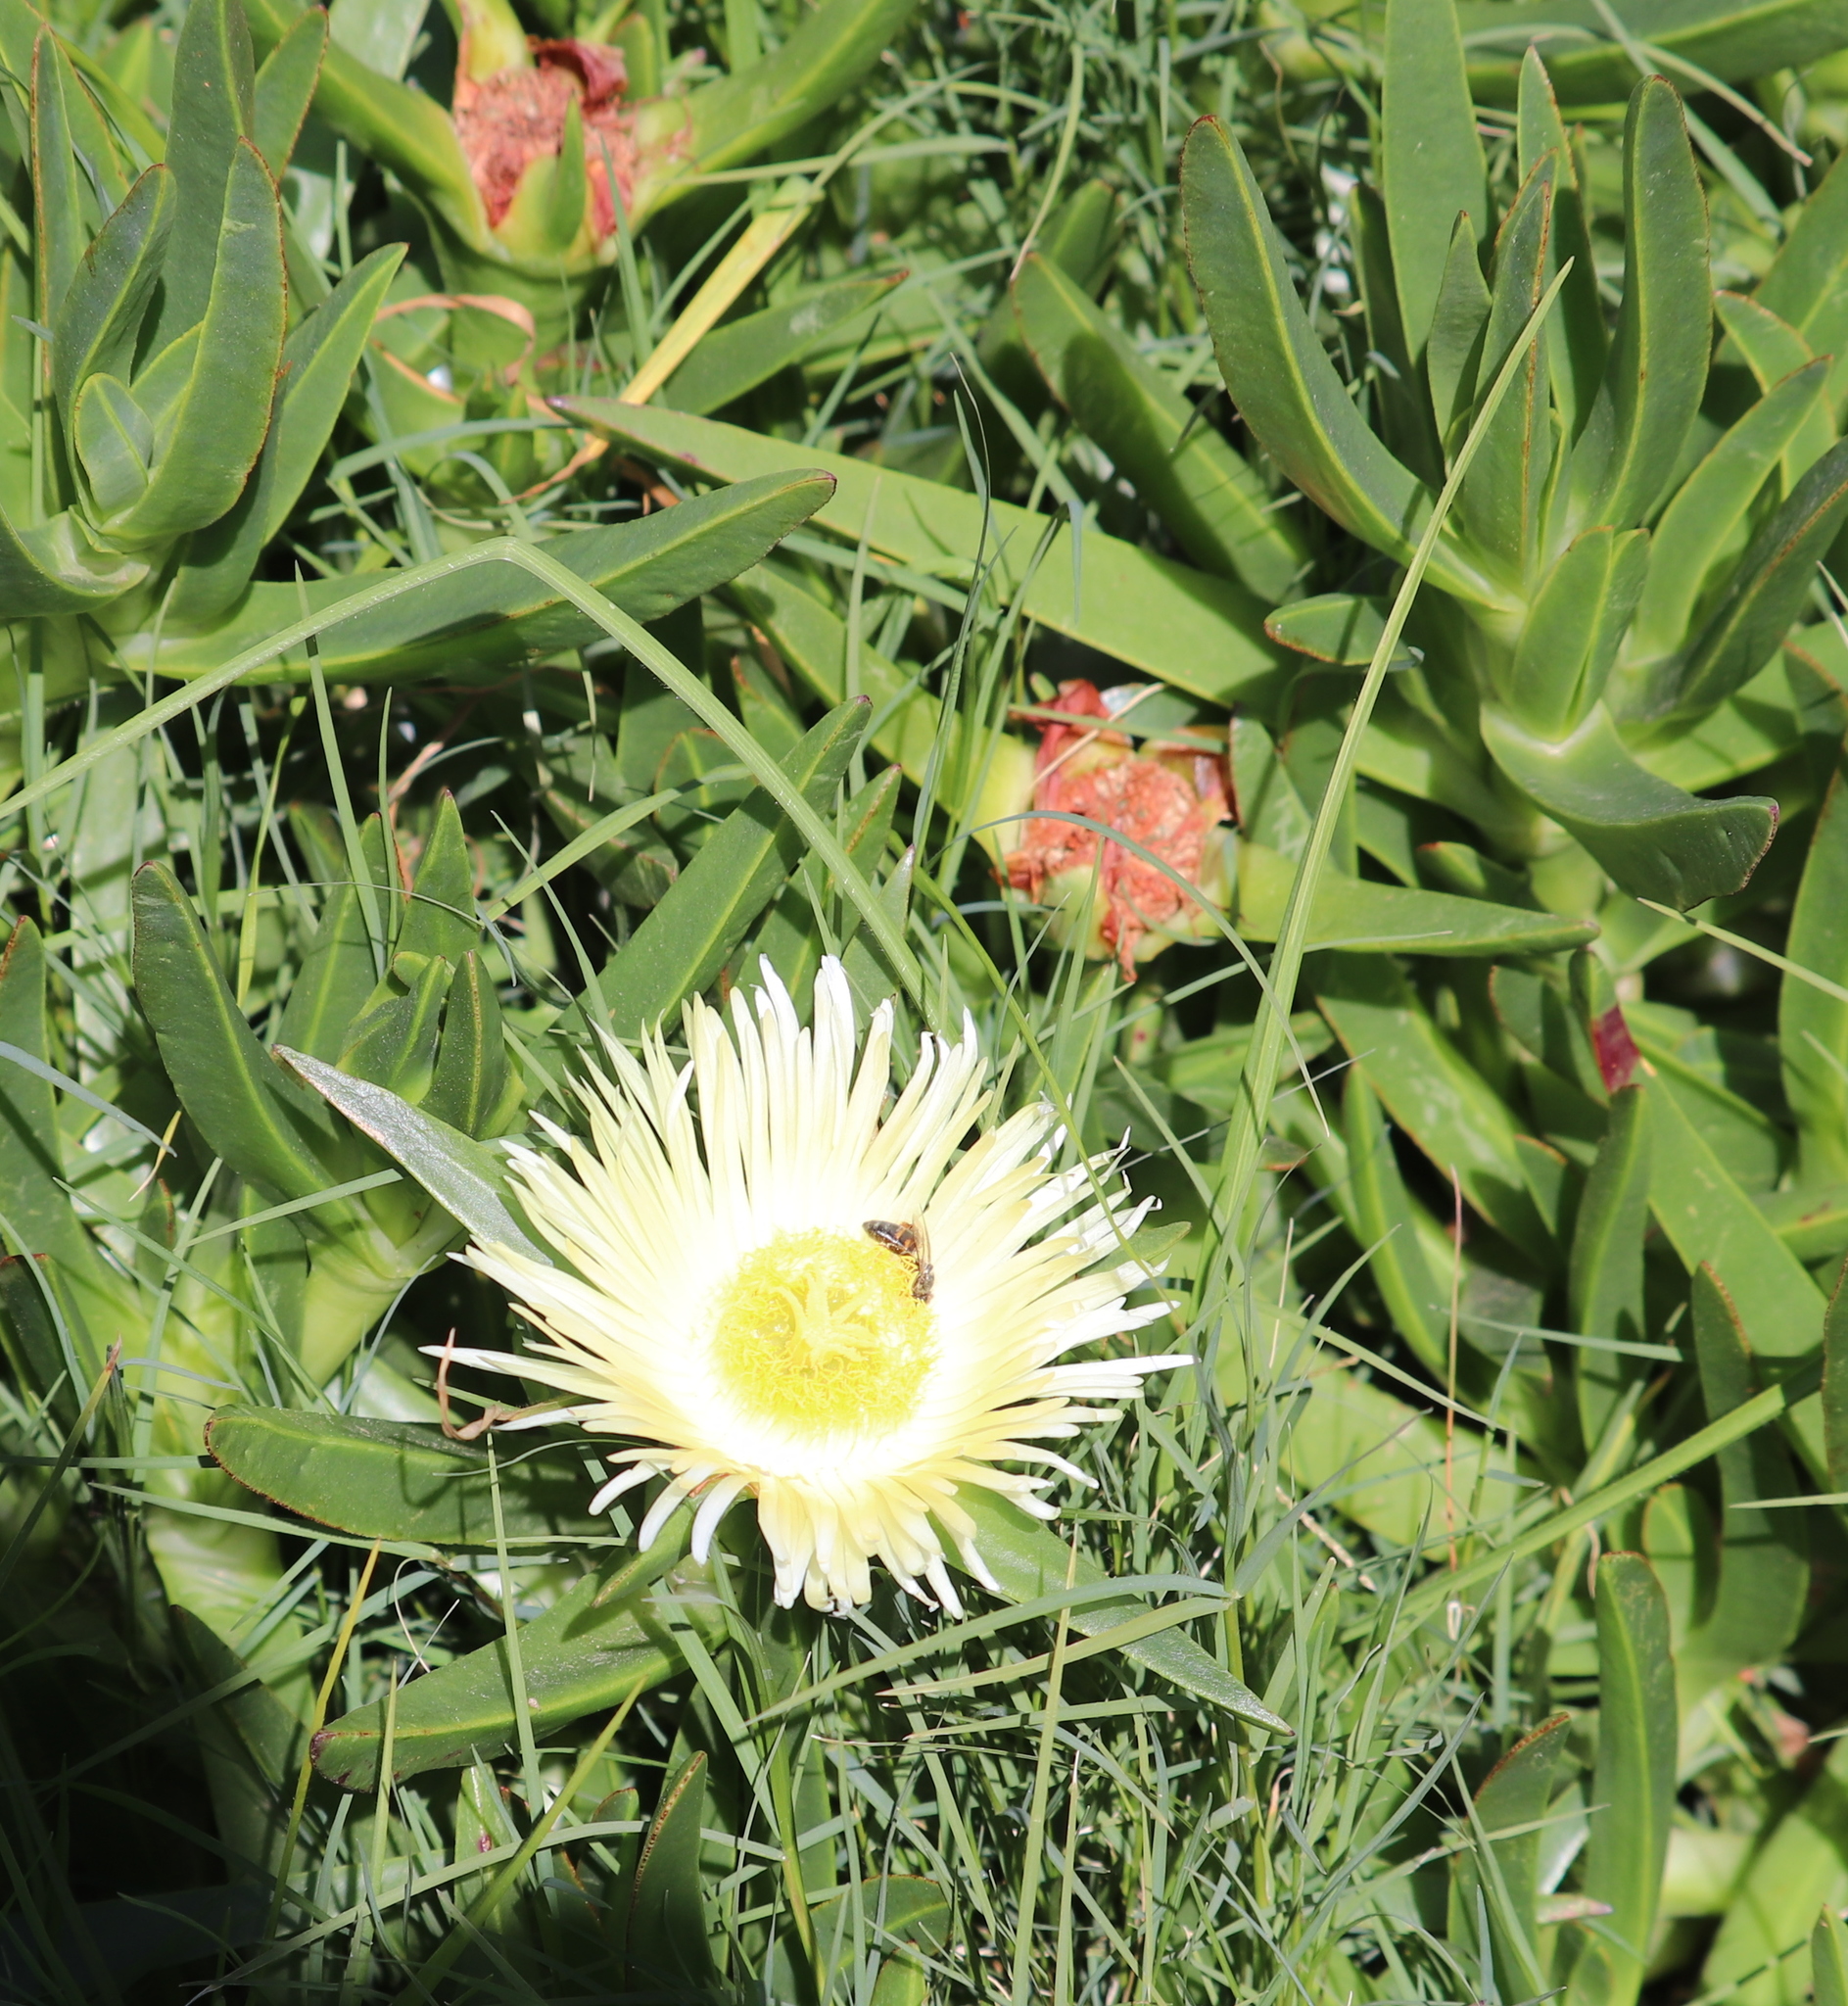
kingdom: Plantae
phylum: Tracheophyta
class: Magnoliopsida
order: Caryophyllales
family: Aizoaceae
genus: Carpobrotus
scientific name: Carpobrotus edulis
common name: Hottentot-fig
